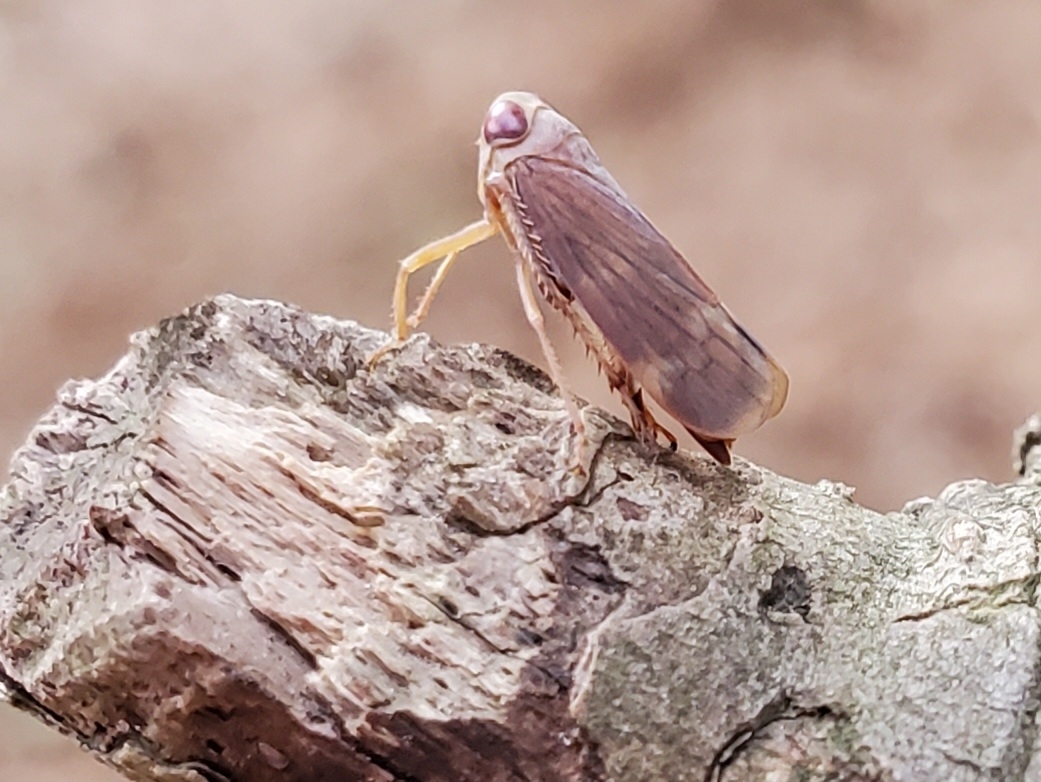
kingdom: Animalia
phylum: Arthropoda
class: Insecta
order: Hemiptera
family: Cicadellidae
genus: Jikradia
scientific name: Jikradia olitoria
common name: Coppery leafhopper
